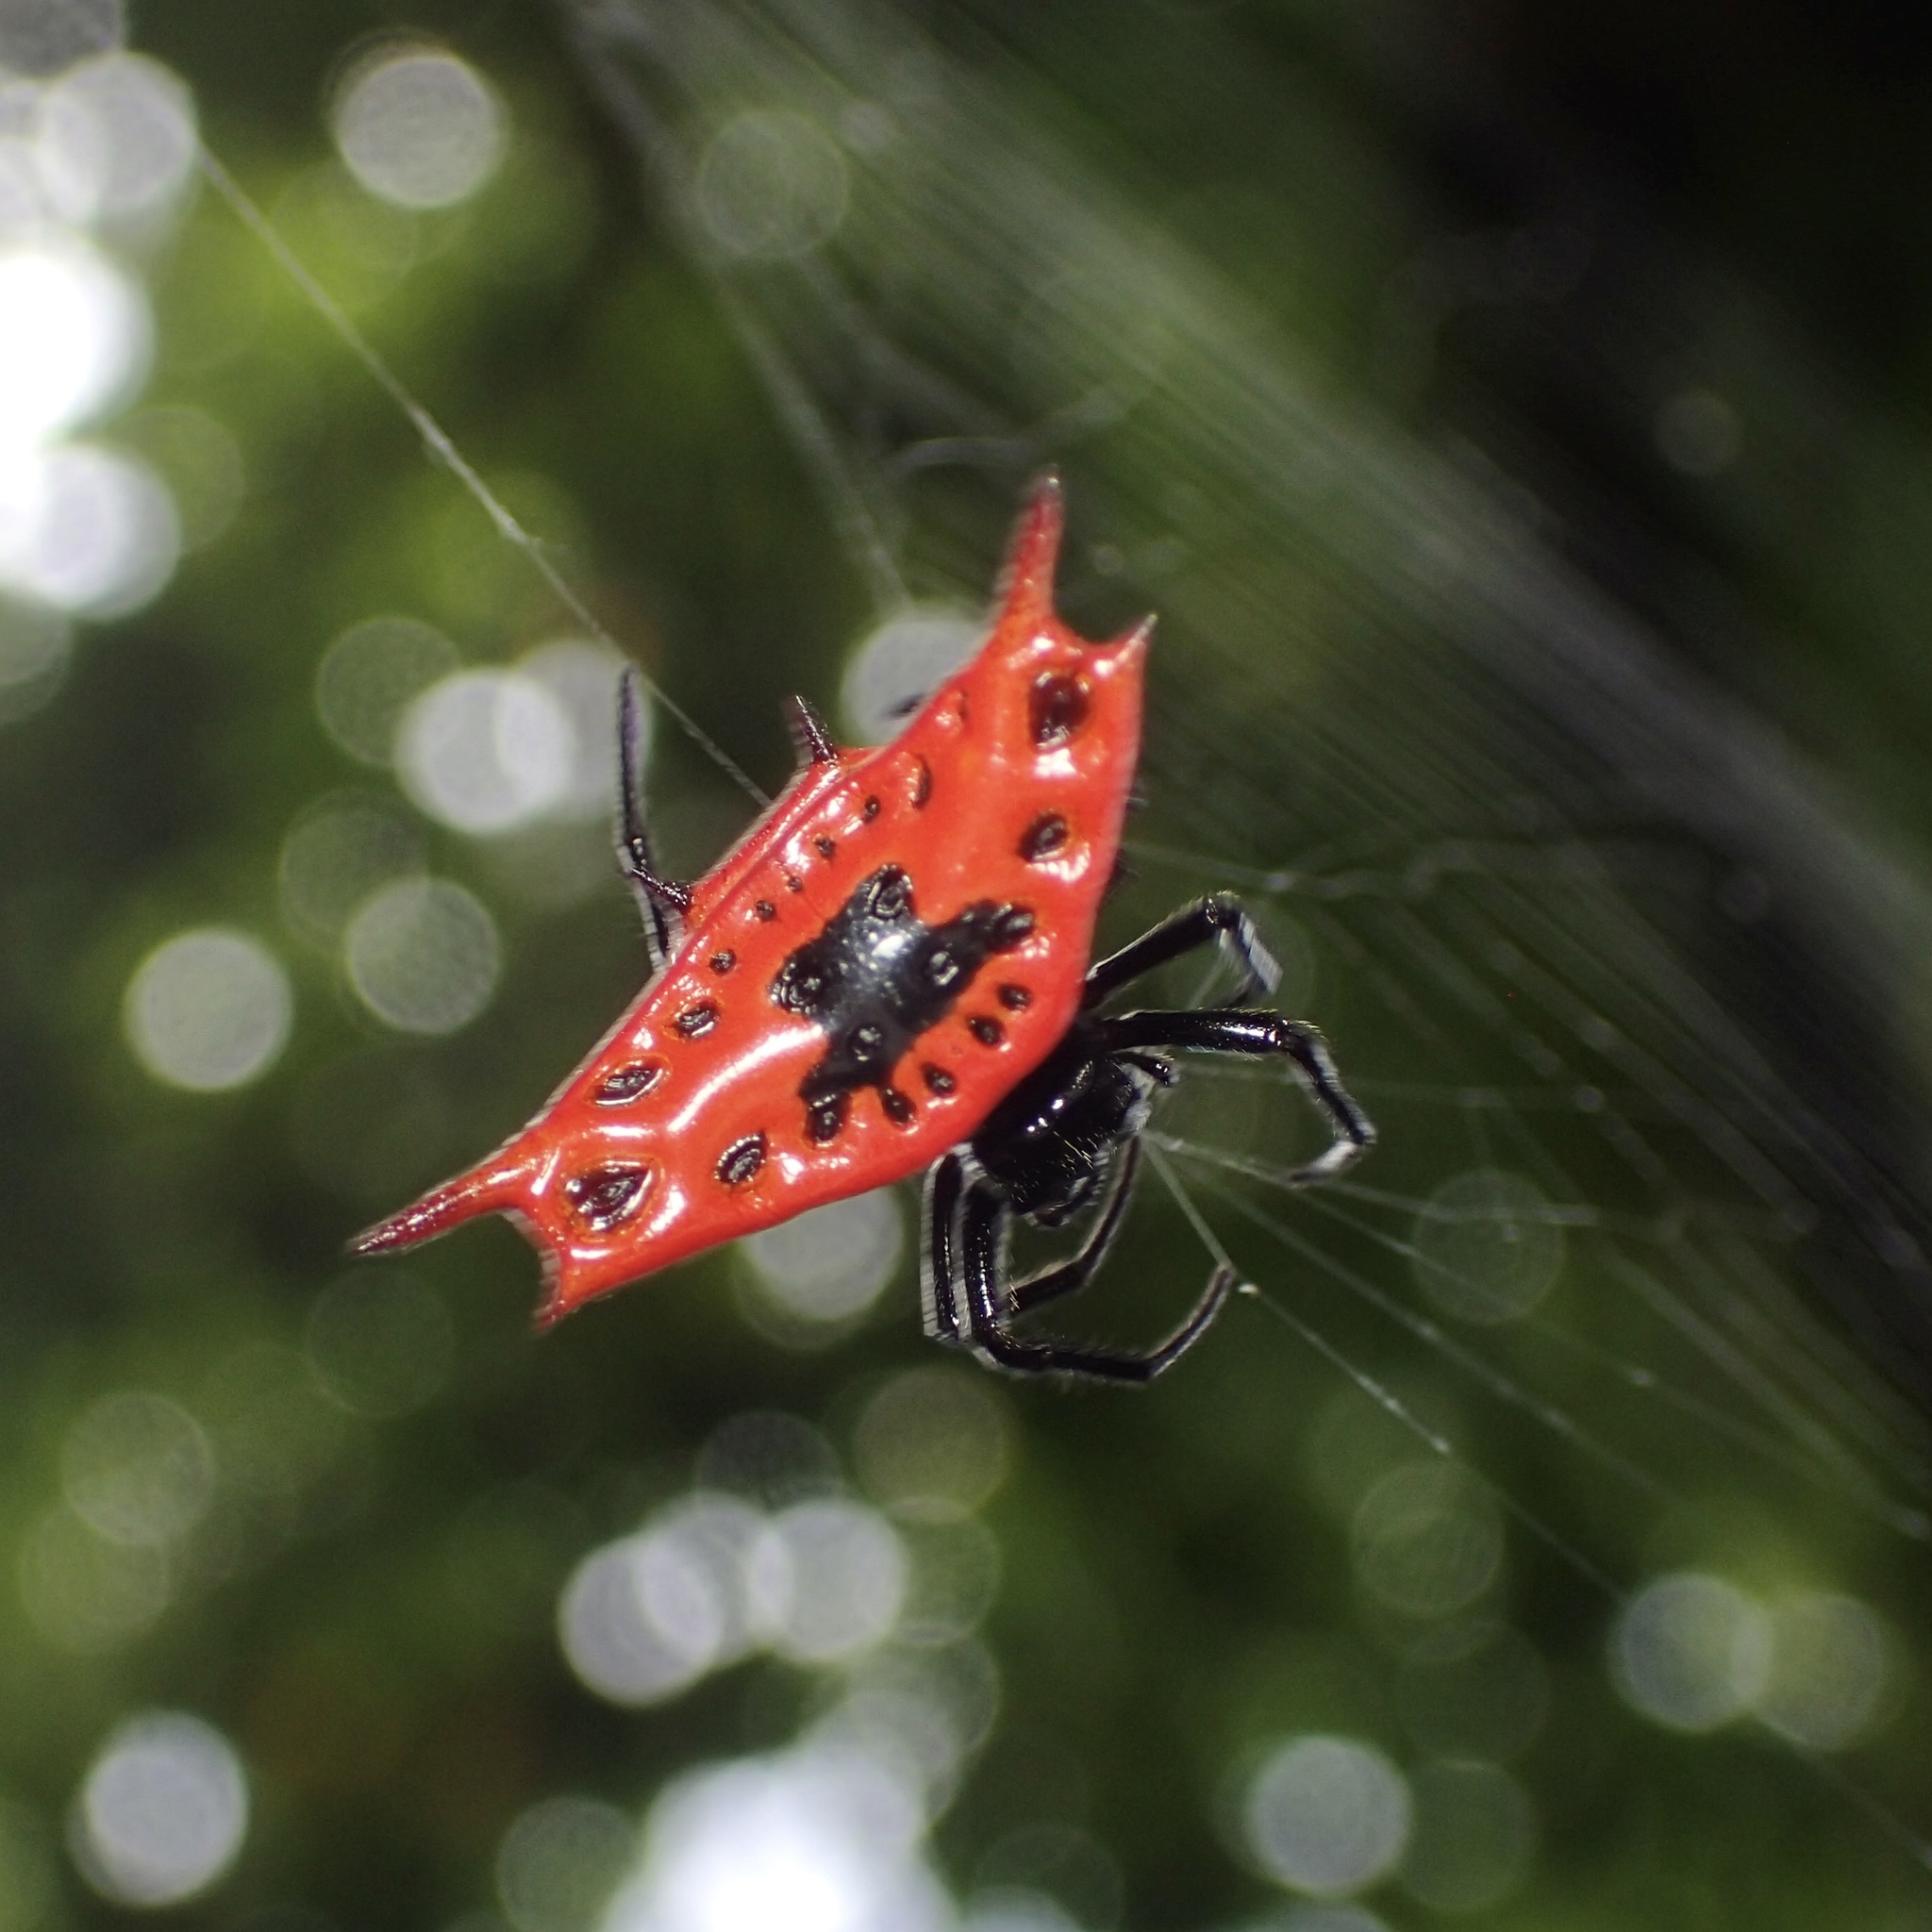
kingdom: Animalia
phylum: Arthropoda
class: Arachnida
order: Araneae
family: Araneidae
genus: Gasteracantha
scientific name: Gasteracantha signifera
